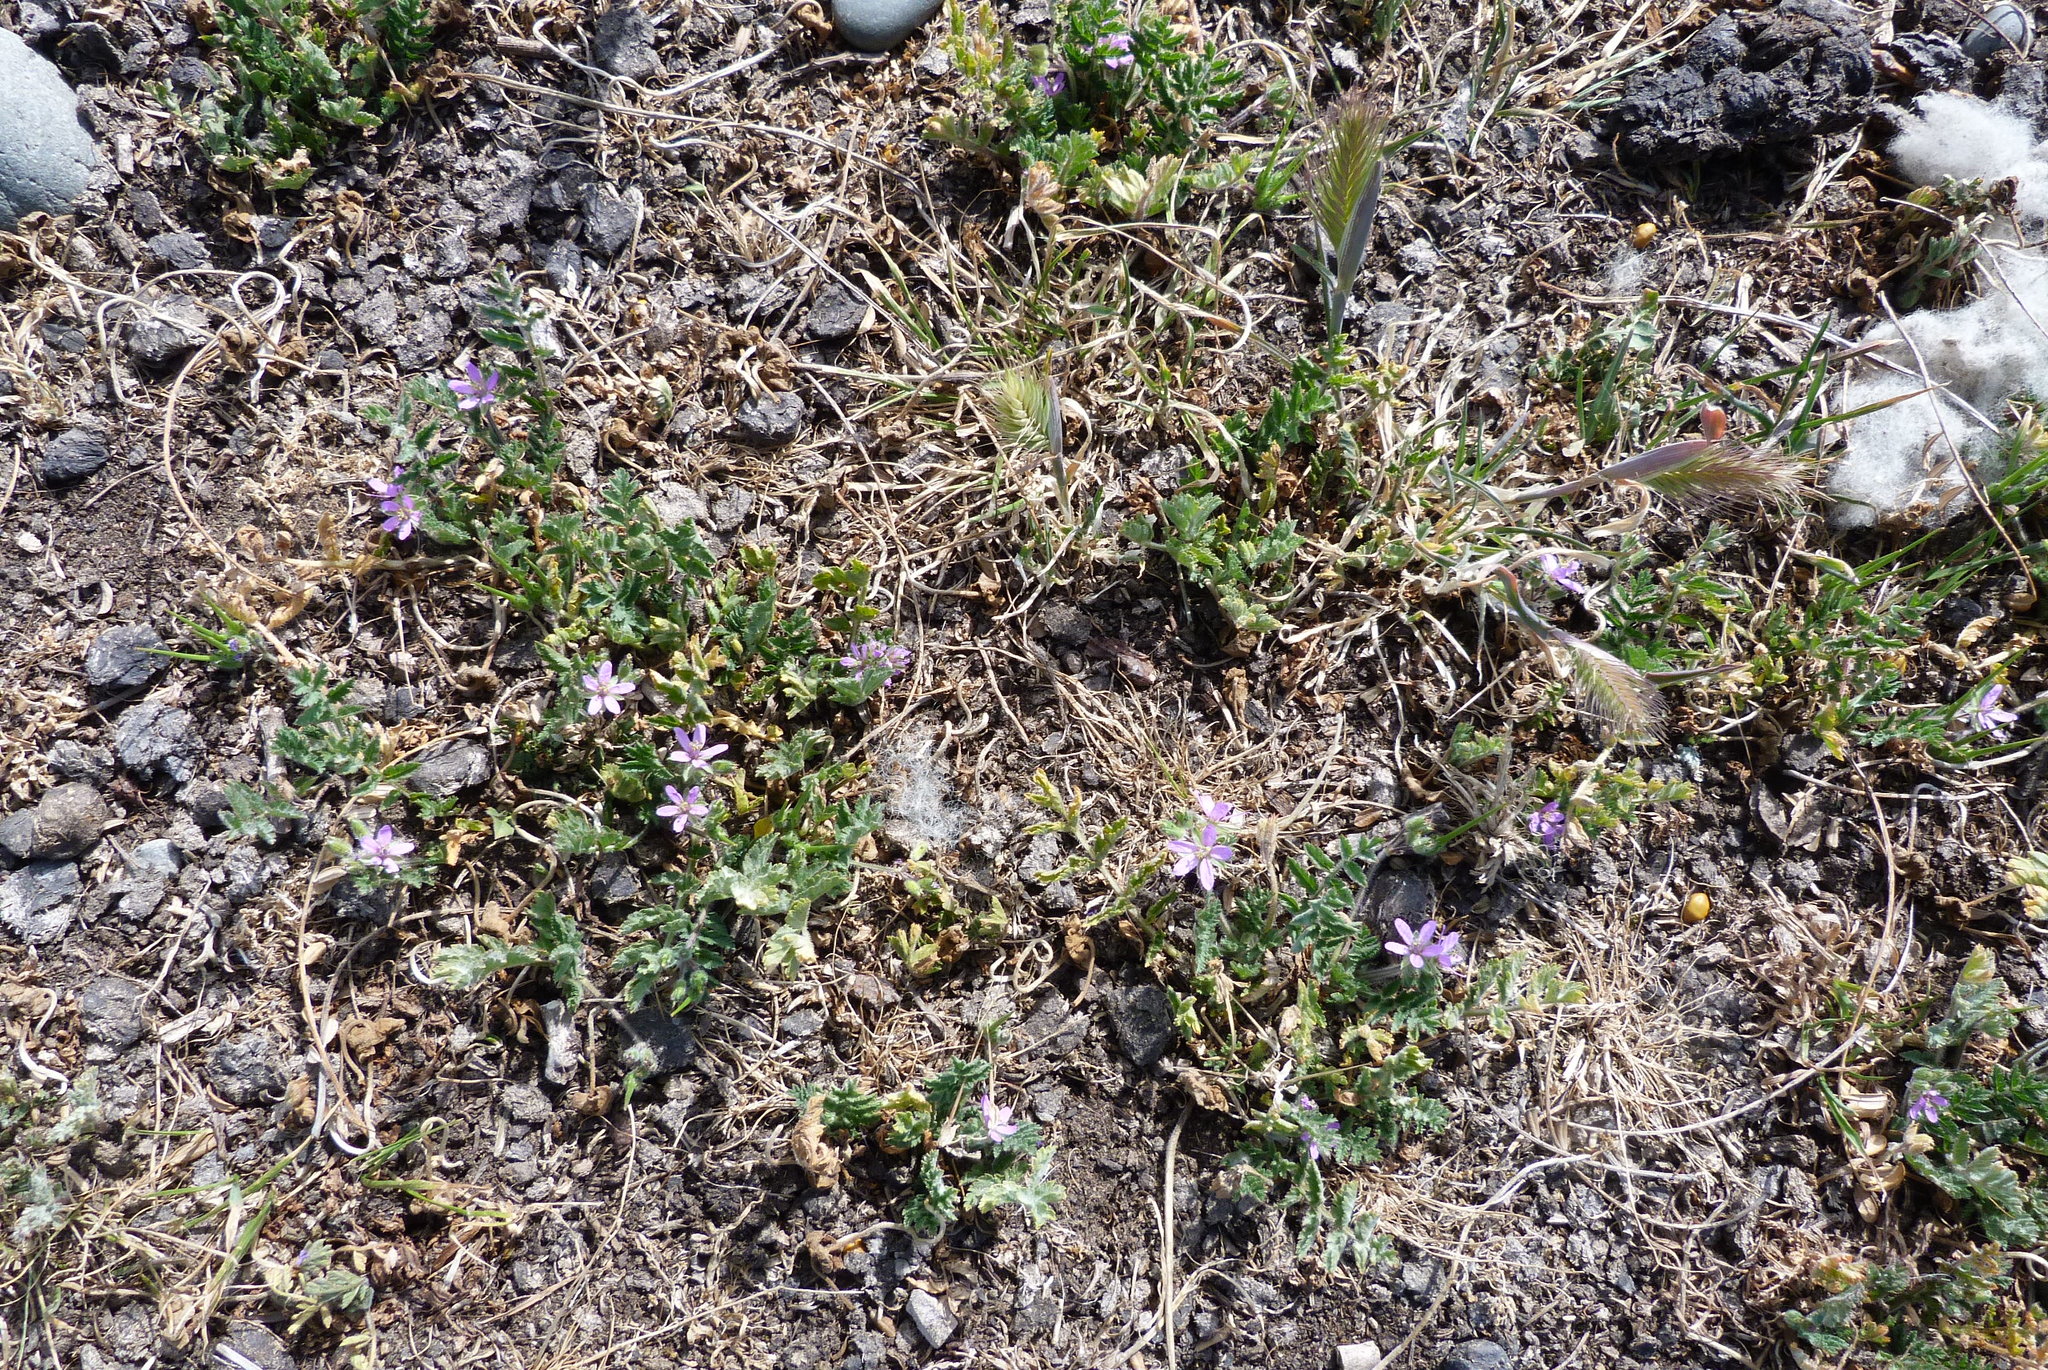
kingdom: Plantae
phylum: Tracheophyta
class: Magnoliopsida
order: Geraniales
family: Geraniaceae
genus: Erodium
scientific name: Erodium cicutarium
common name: Common stork's-bill
